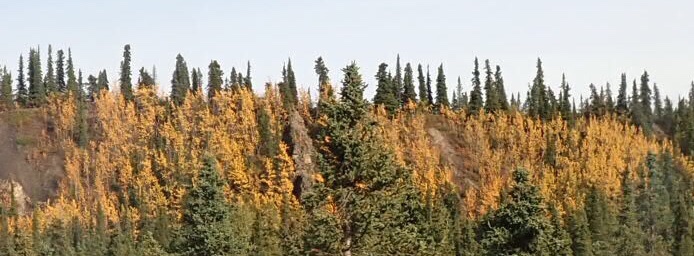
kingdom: Plantae
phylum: Tracheophyta
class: Magnoliopsida
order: Malpighiales
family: Salicaceae
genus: Populus
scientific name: Populus tremuloides
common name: Quaking aspen
